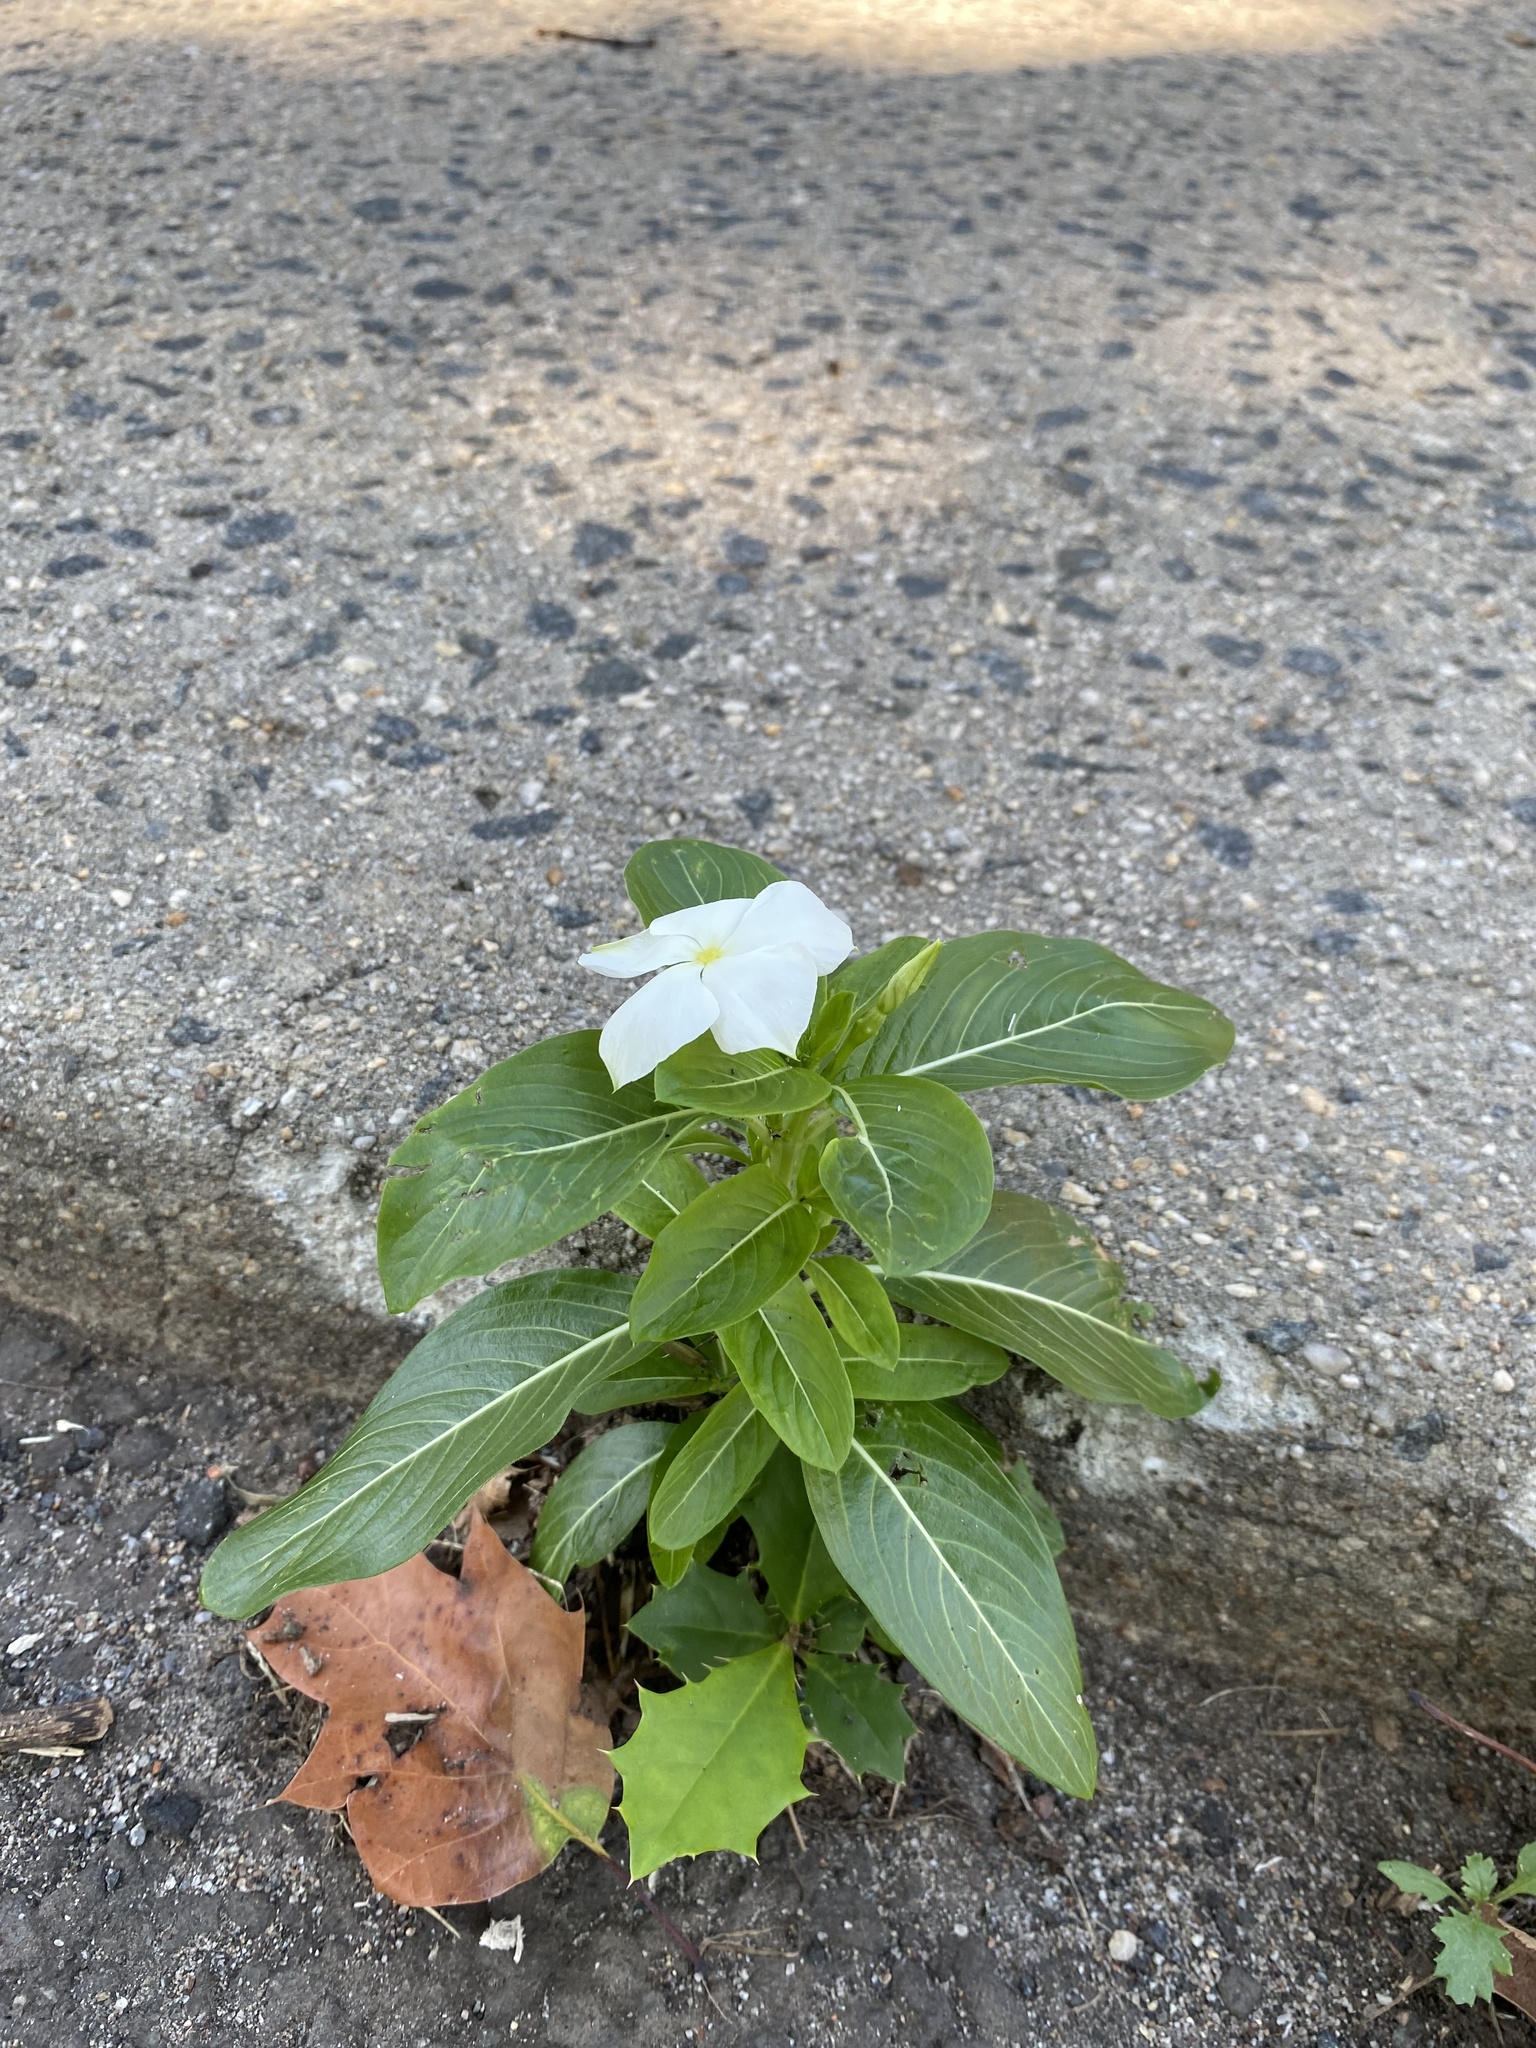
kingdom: Plantae
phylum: Tracheophyta
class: Magnoliopsida
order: Gentianales
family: Apocynaceae
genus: Catharanthus
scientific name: Catharanthus roseus
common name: Madagascar periwinkle
